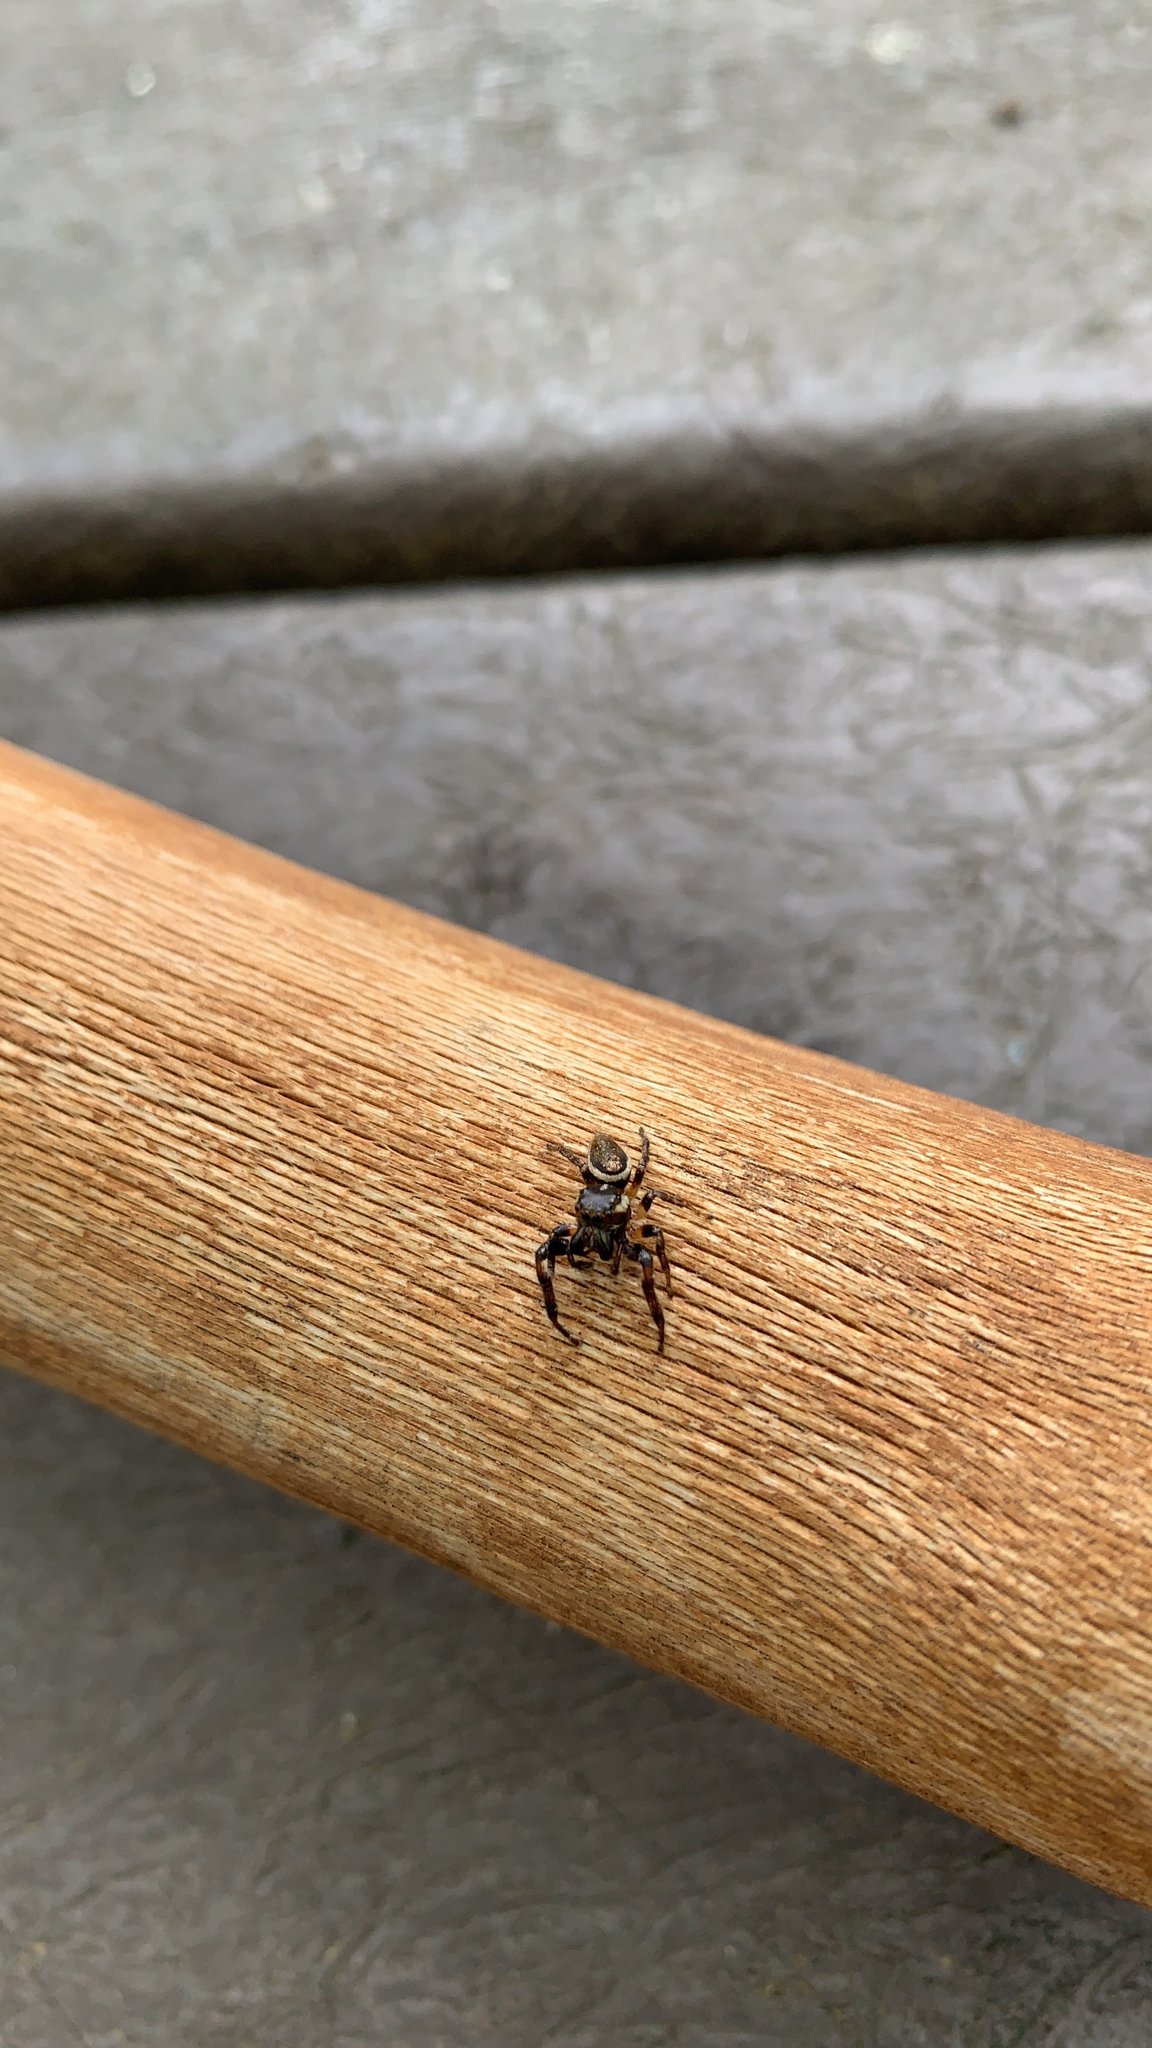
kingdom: Animalia
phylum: Arthropoda
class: Arachnida
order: Araneae
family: Salticidae
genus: Eris
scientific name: Eris militaris
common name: Bronze jumper
